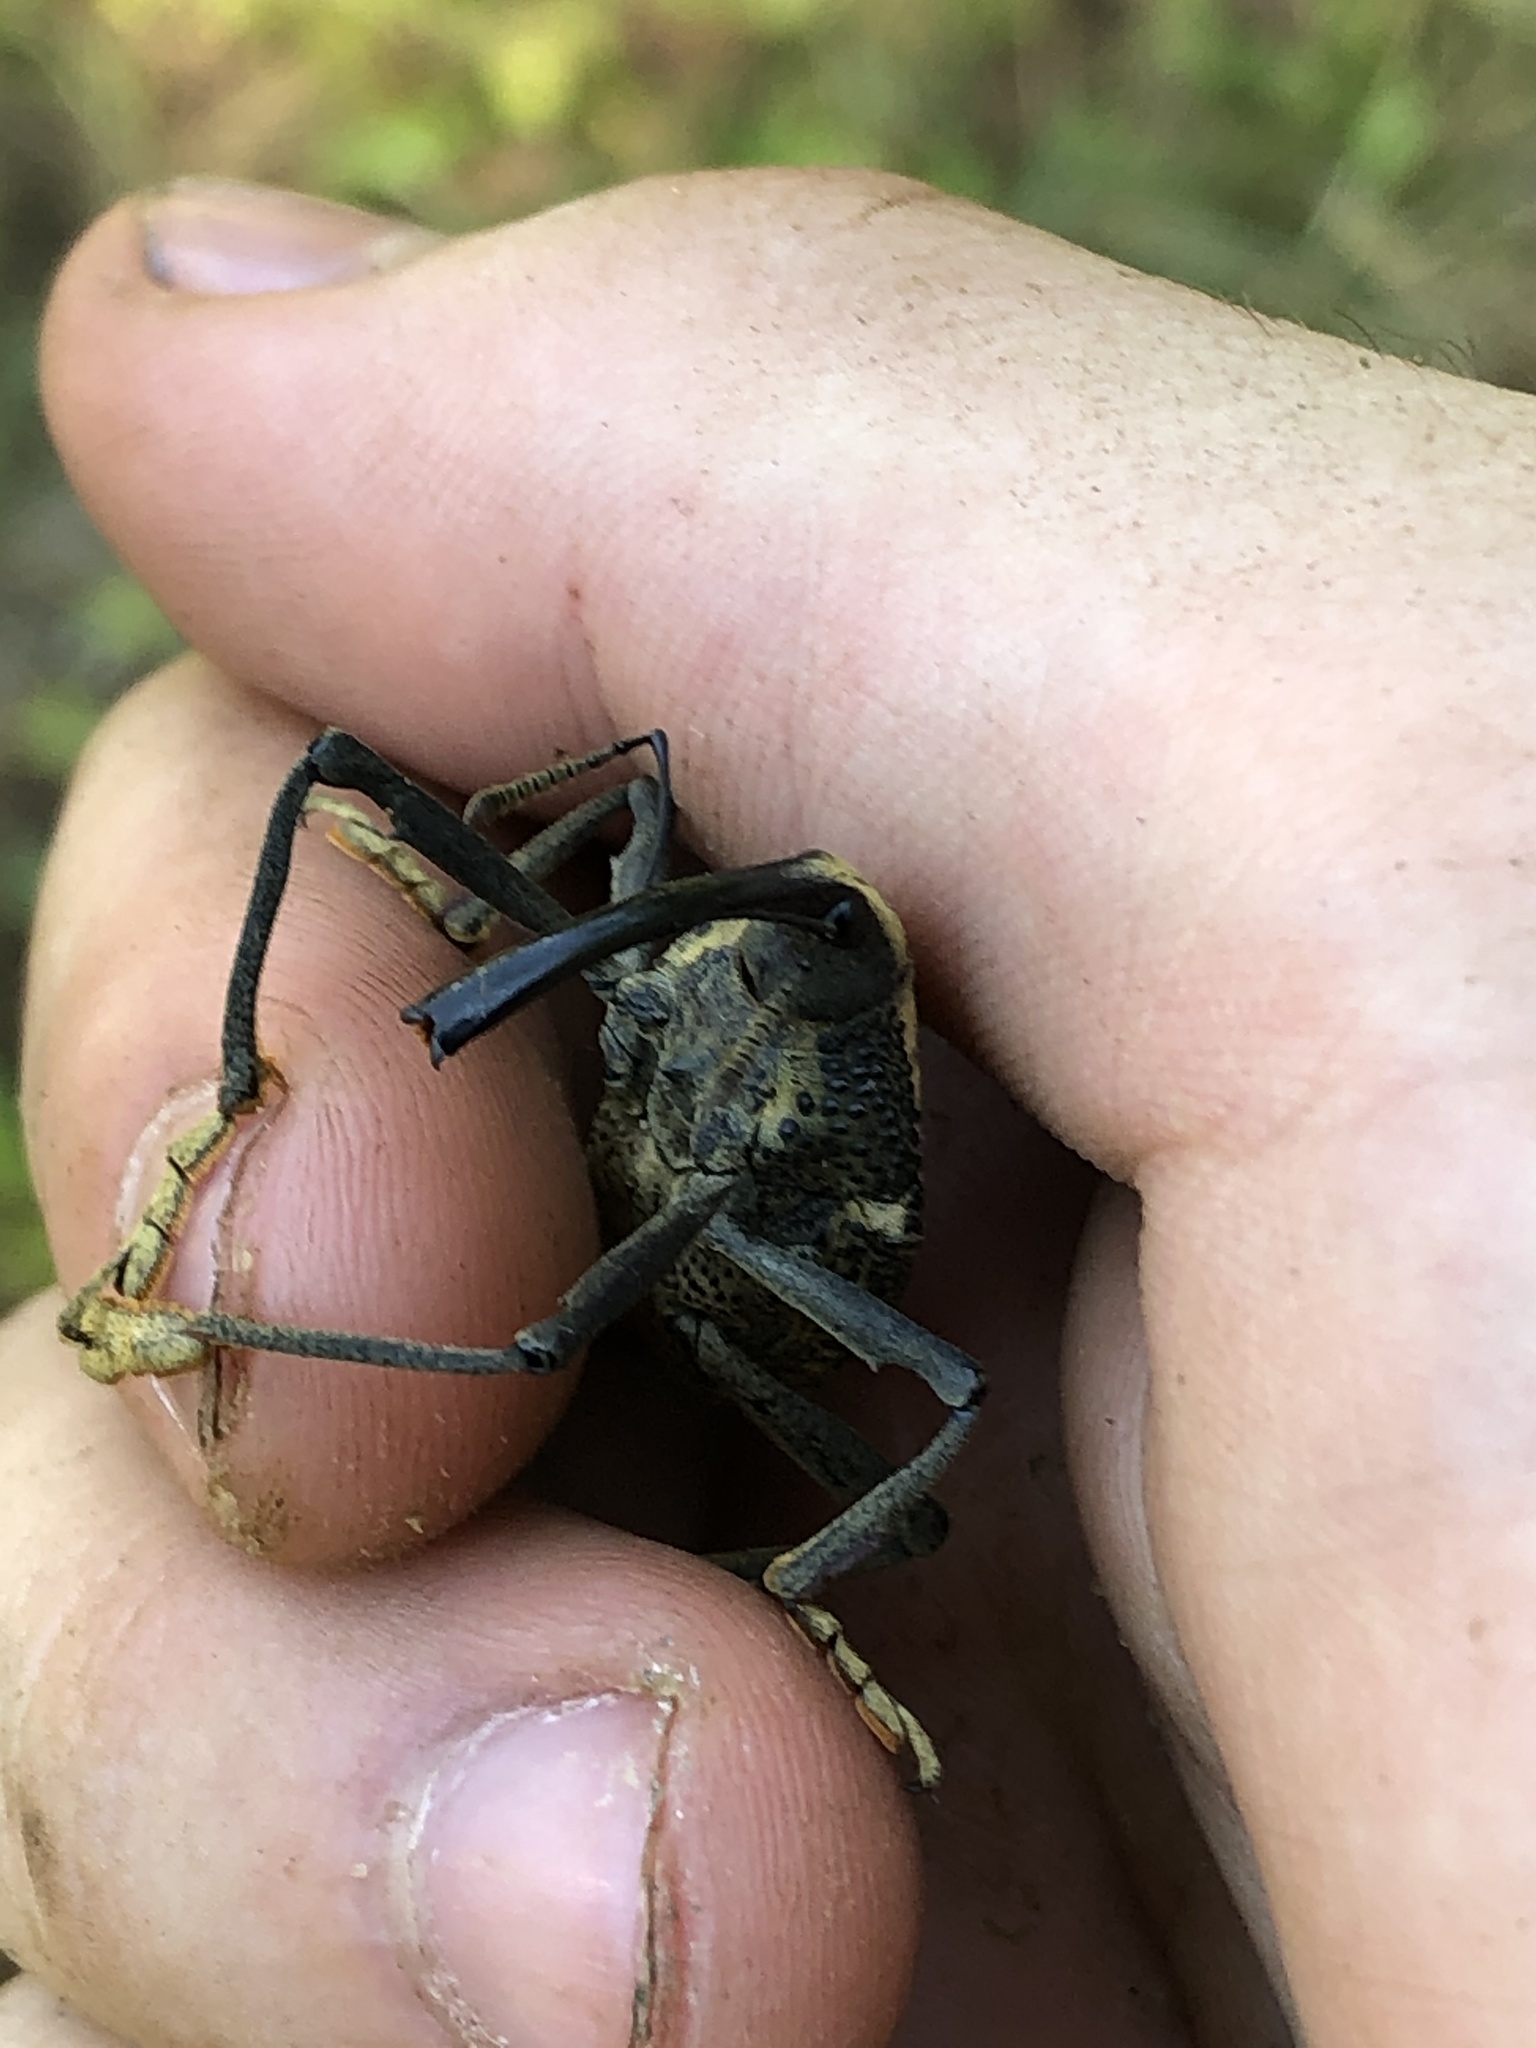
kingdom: Animalia
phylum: Arthropoda
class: Insecta
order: Coleoptera
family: Curculionidae
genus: Rhinastus
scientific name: Rhinastus latisternus
